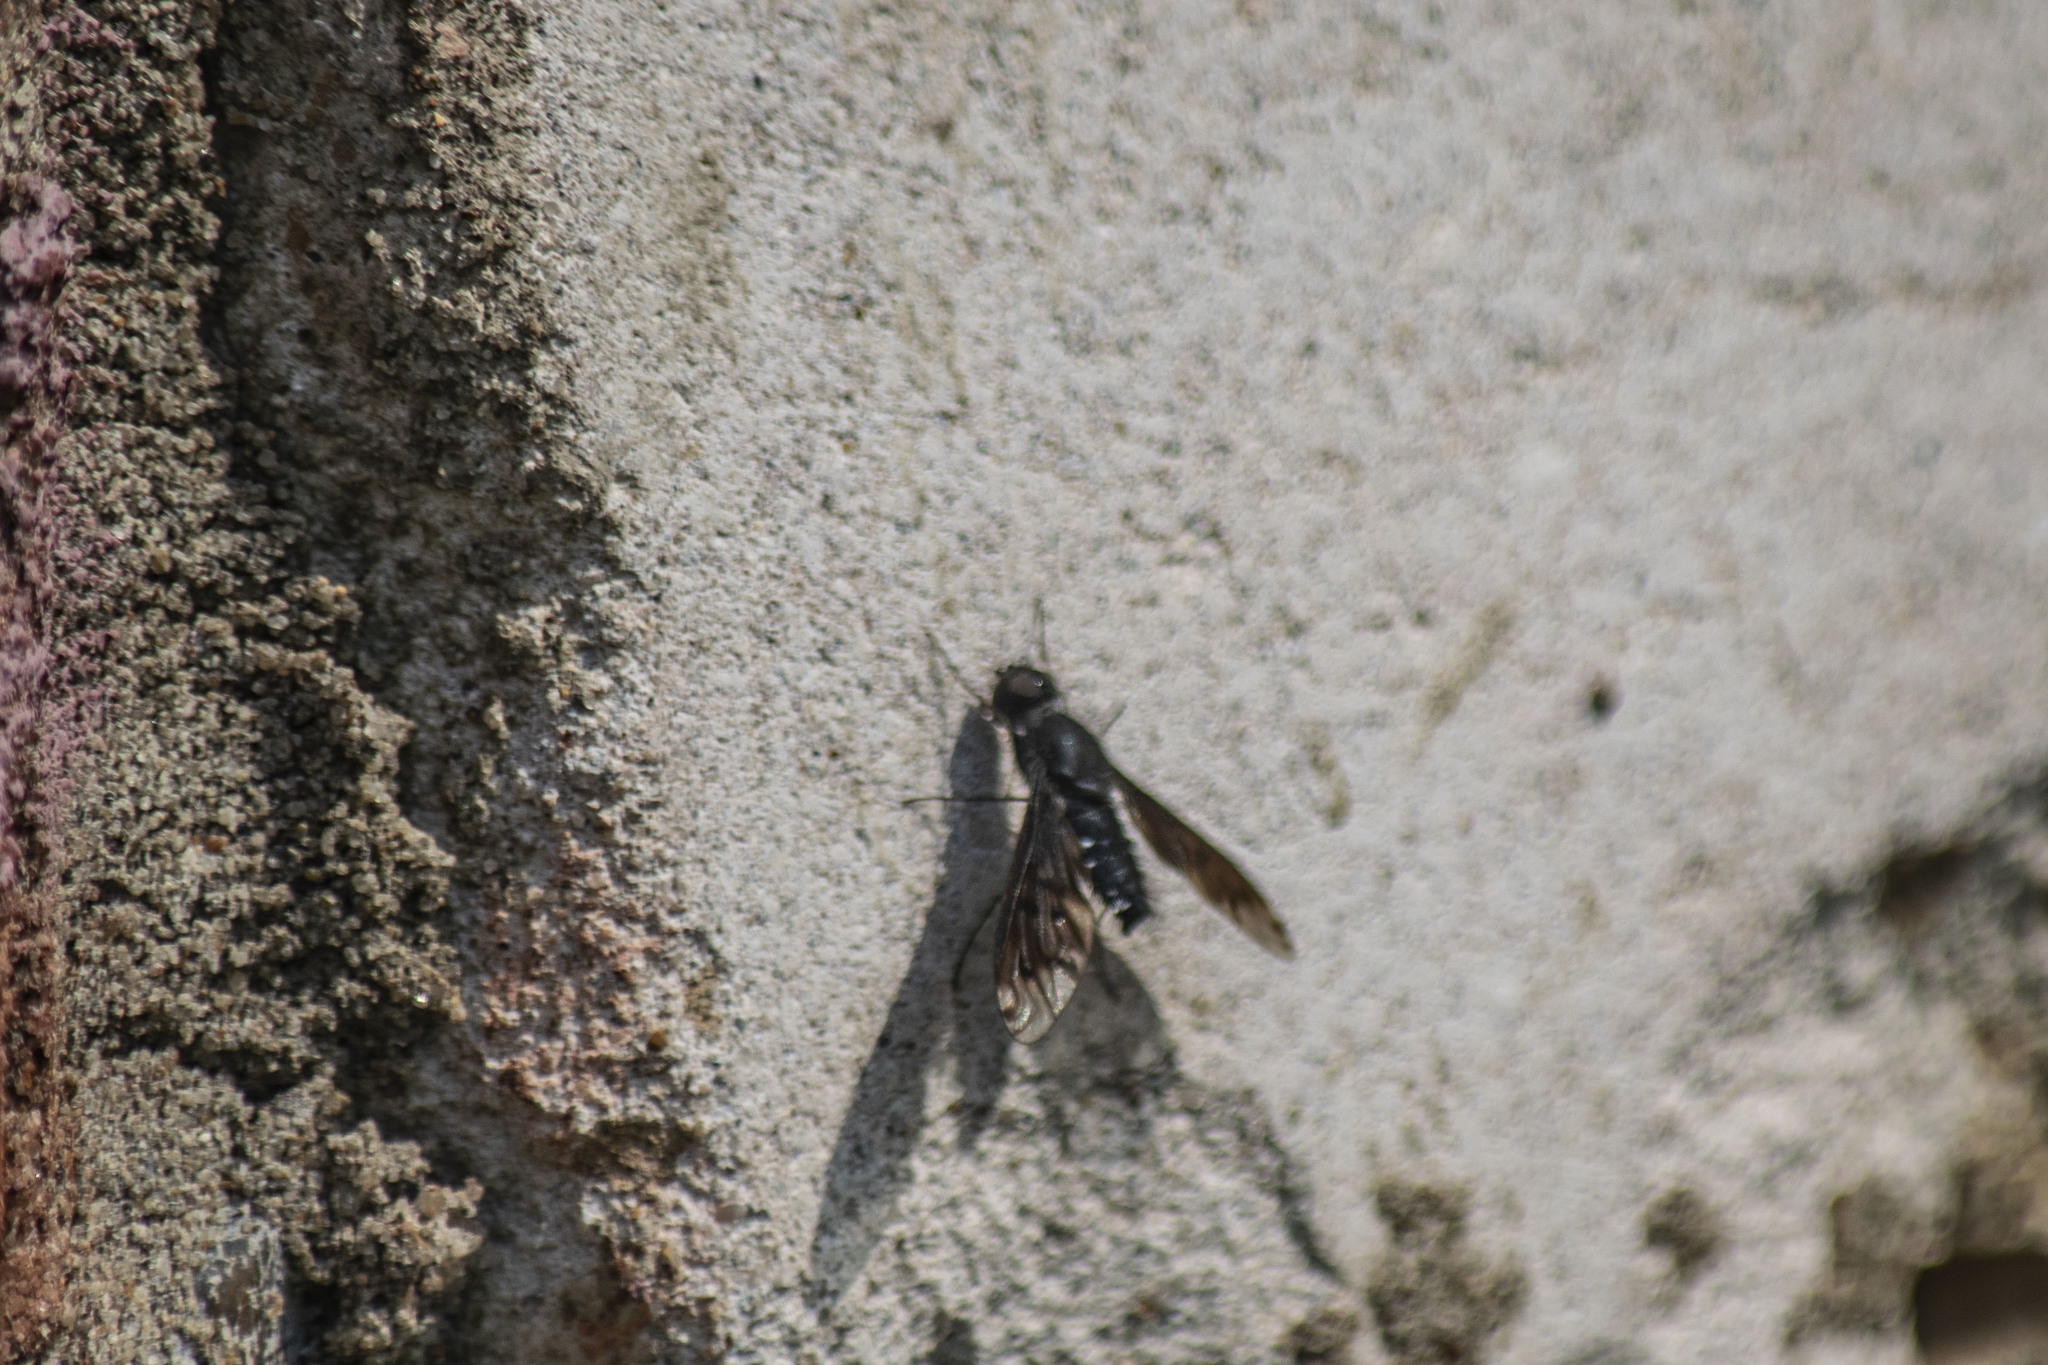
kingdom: Animalia
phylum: Arthropoda
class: Insecta
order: Diptera
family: Bombyliidae
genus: Anthrax
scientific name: Anthrax anthrax
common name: Anthracite bee-fly
